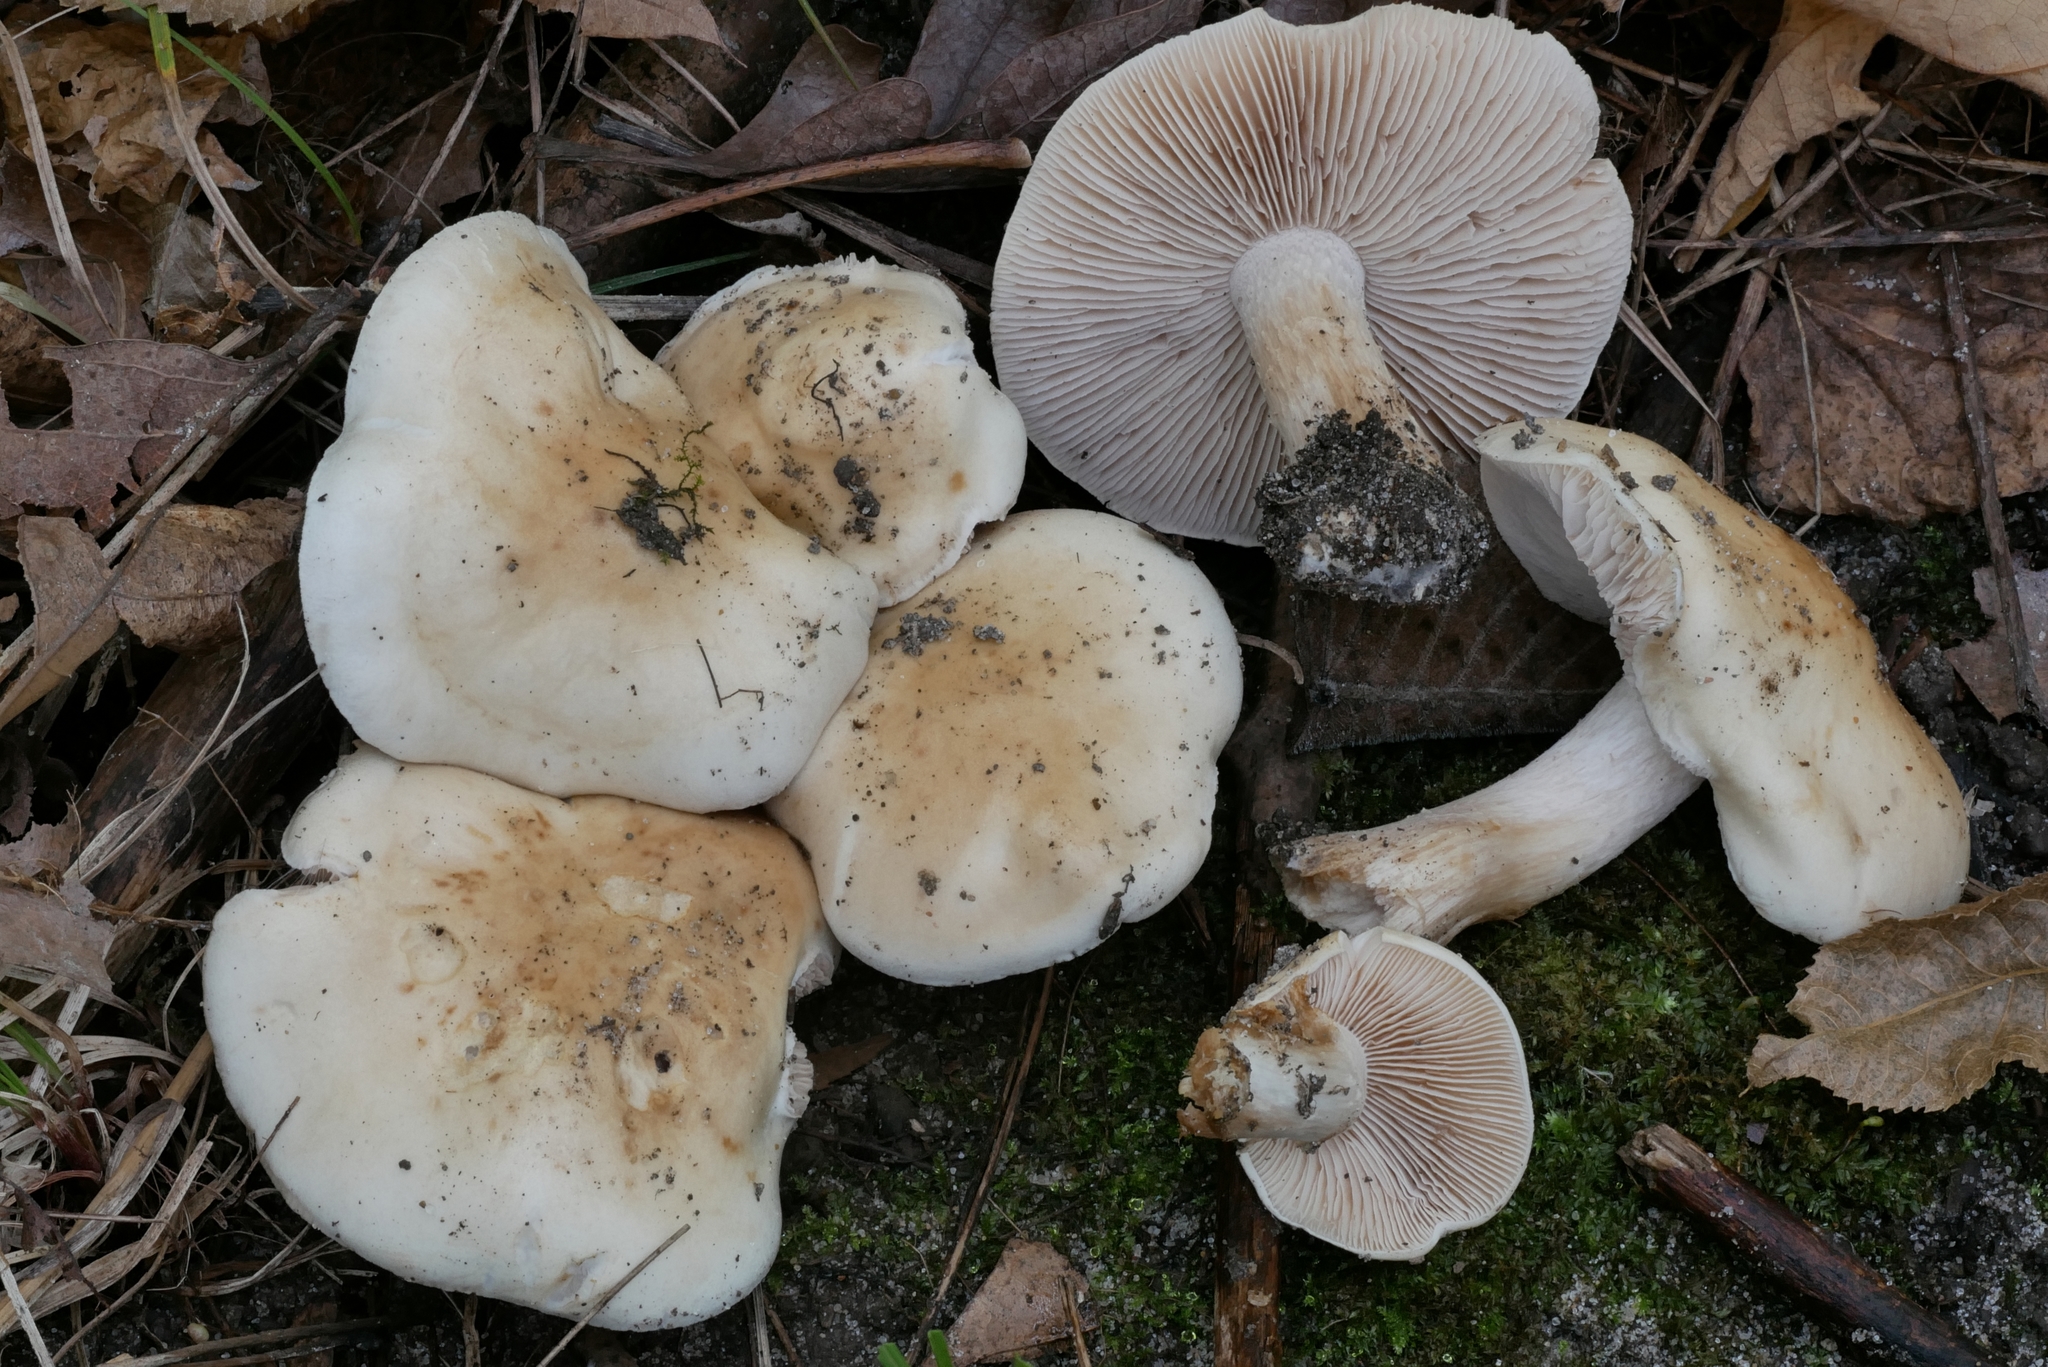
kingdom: Fungi
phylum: Basidiomycota
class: Agaricomycetes
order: Agaricales
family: Hymenogastraceae
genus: Hebeloma
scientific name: Hebeloma mackinawense
